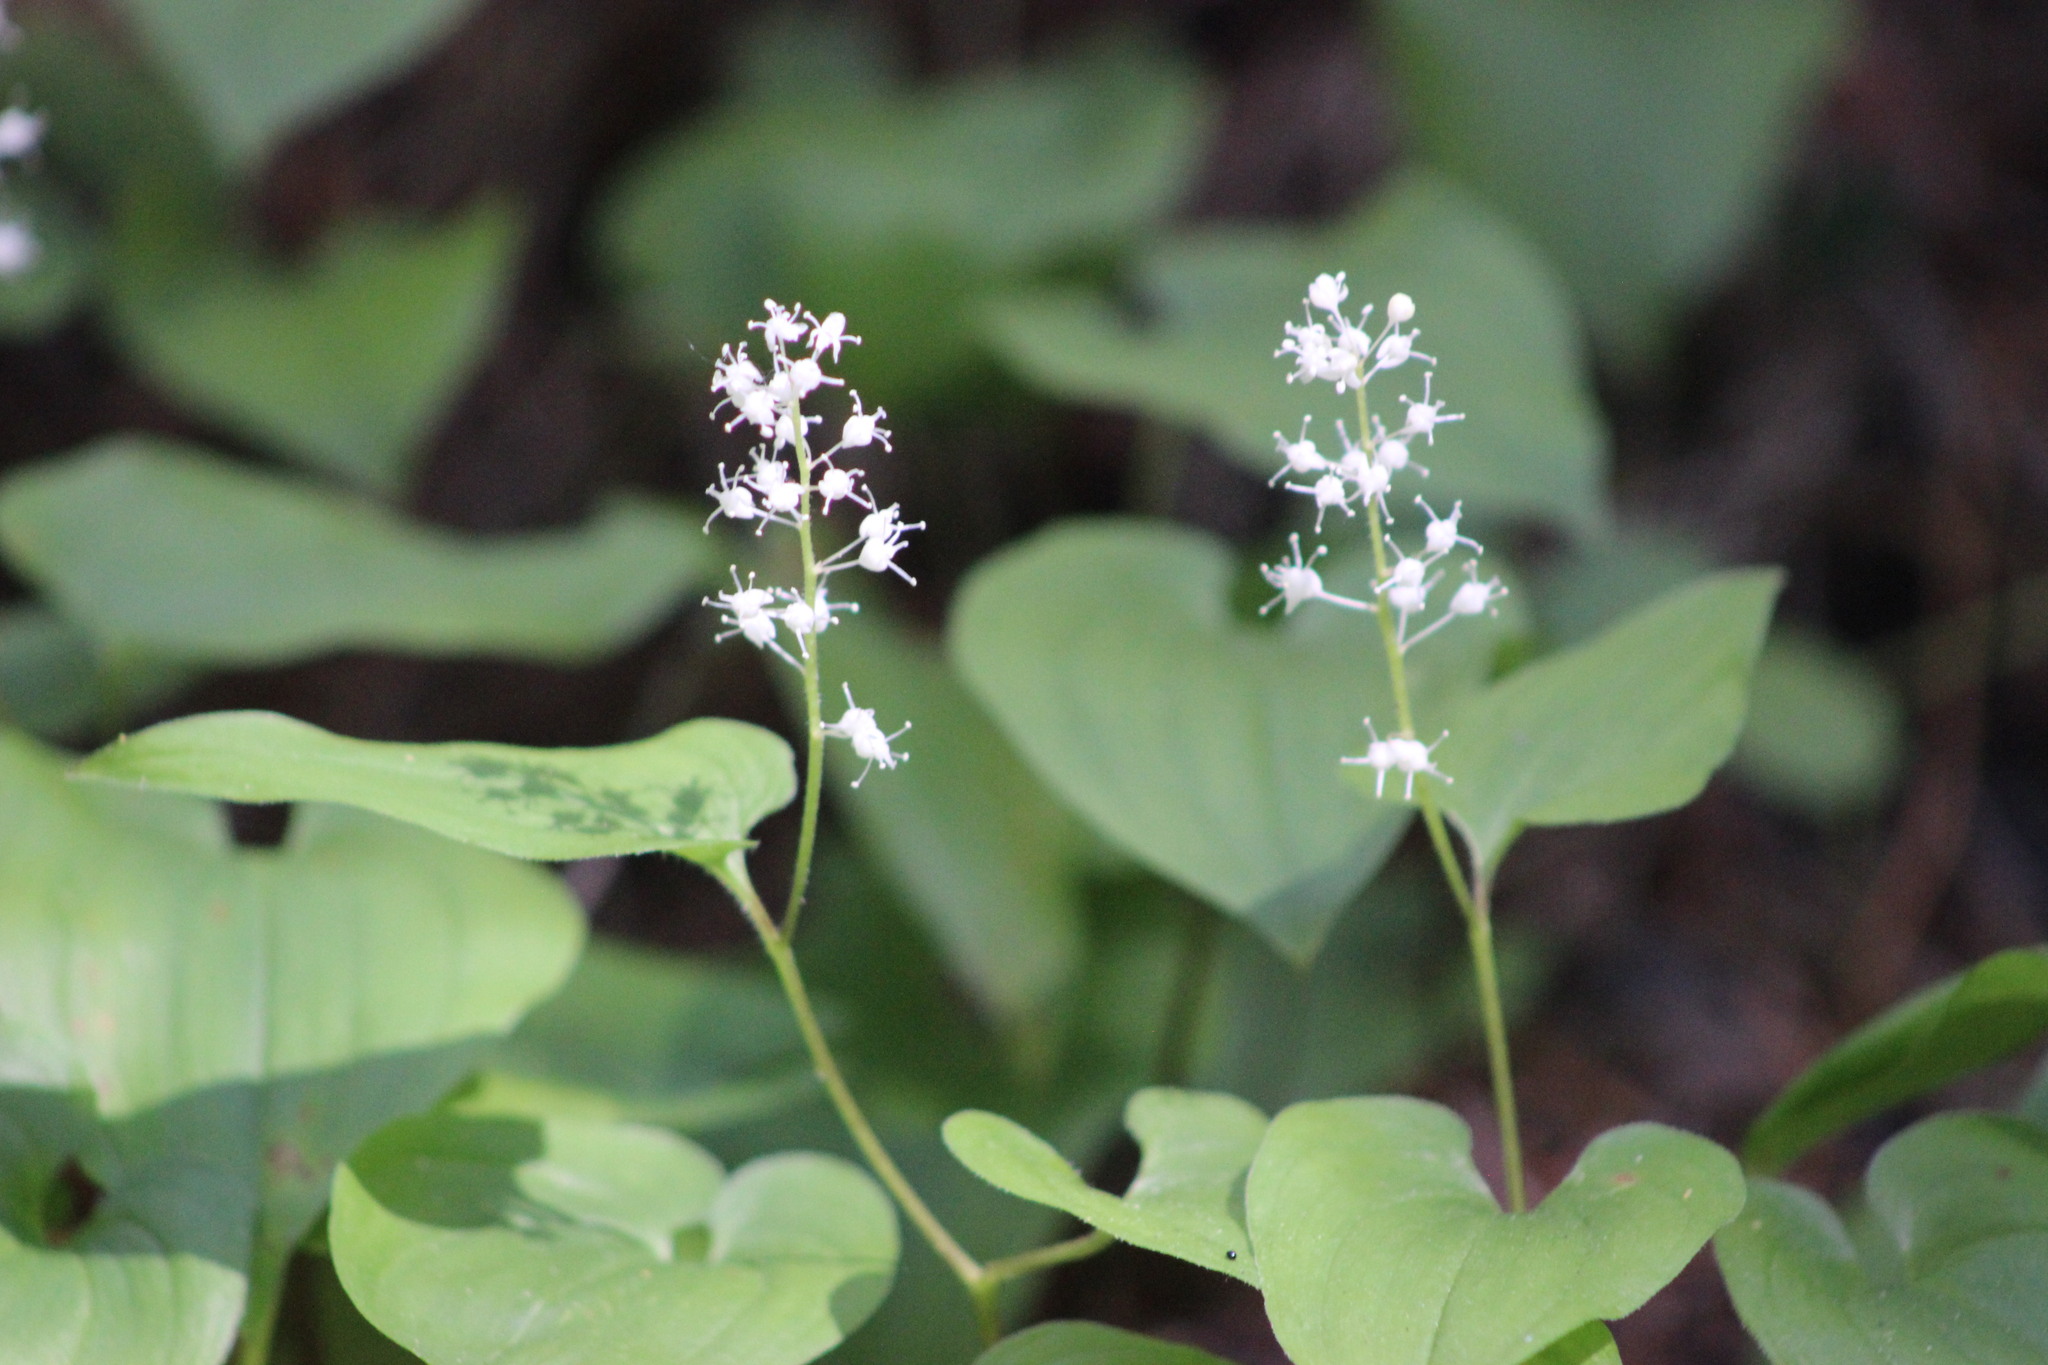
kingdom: Plantae
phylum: Tracheophyta
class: Liliopsida
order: Asparagales
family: Asparagaceae
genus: Maianthemum
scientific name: Maianthemum bifolium
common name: May lily
